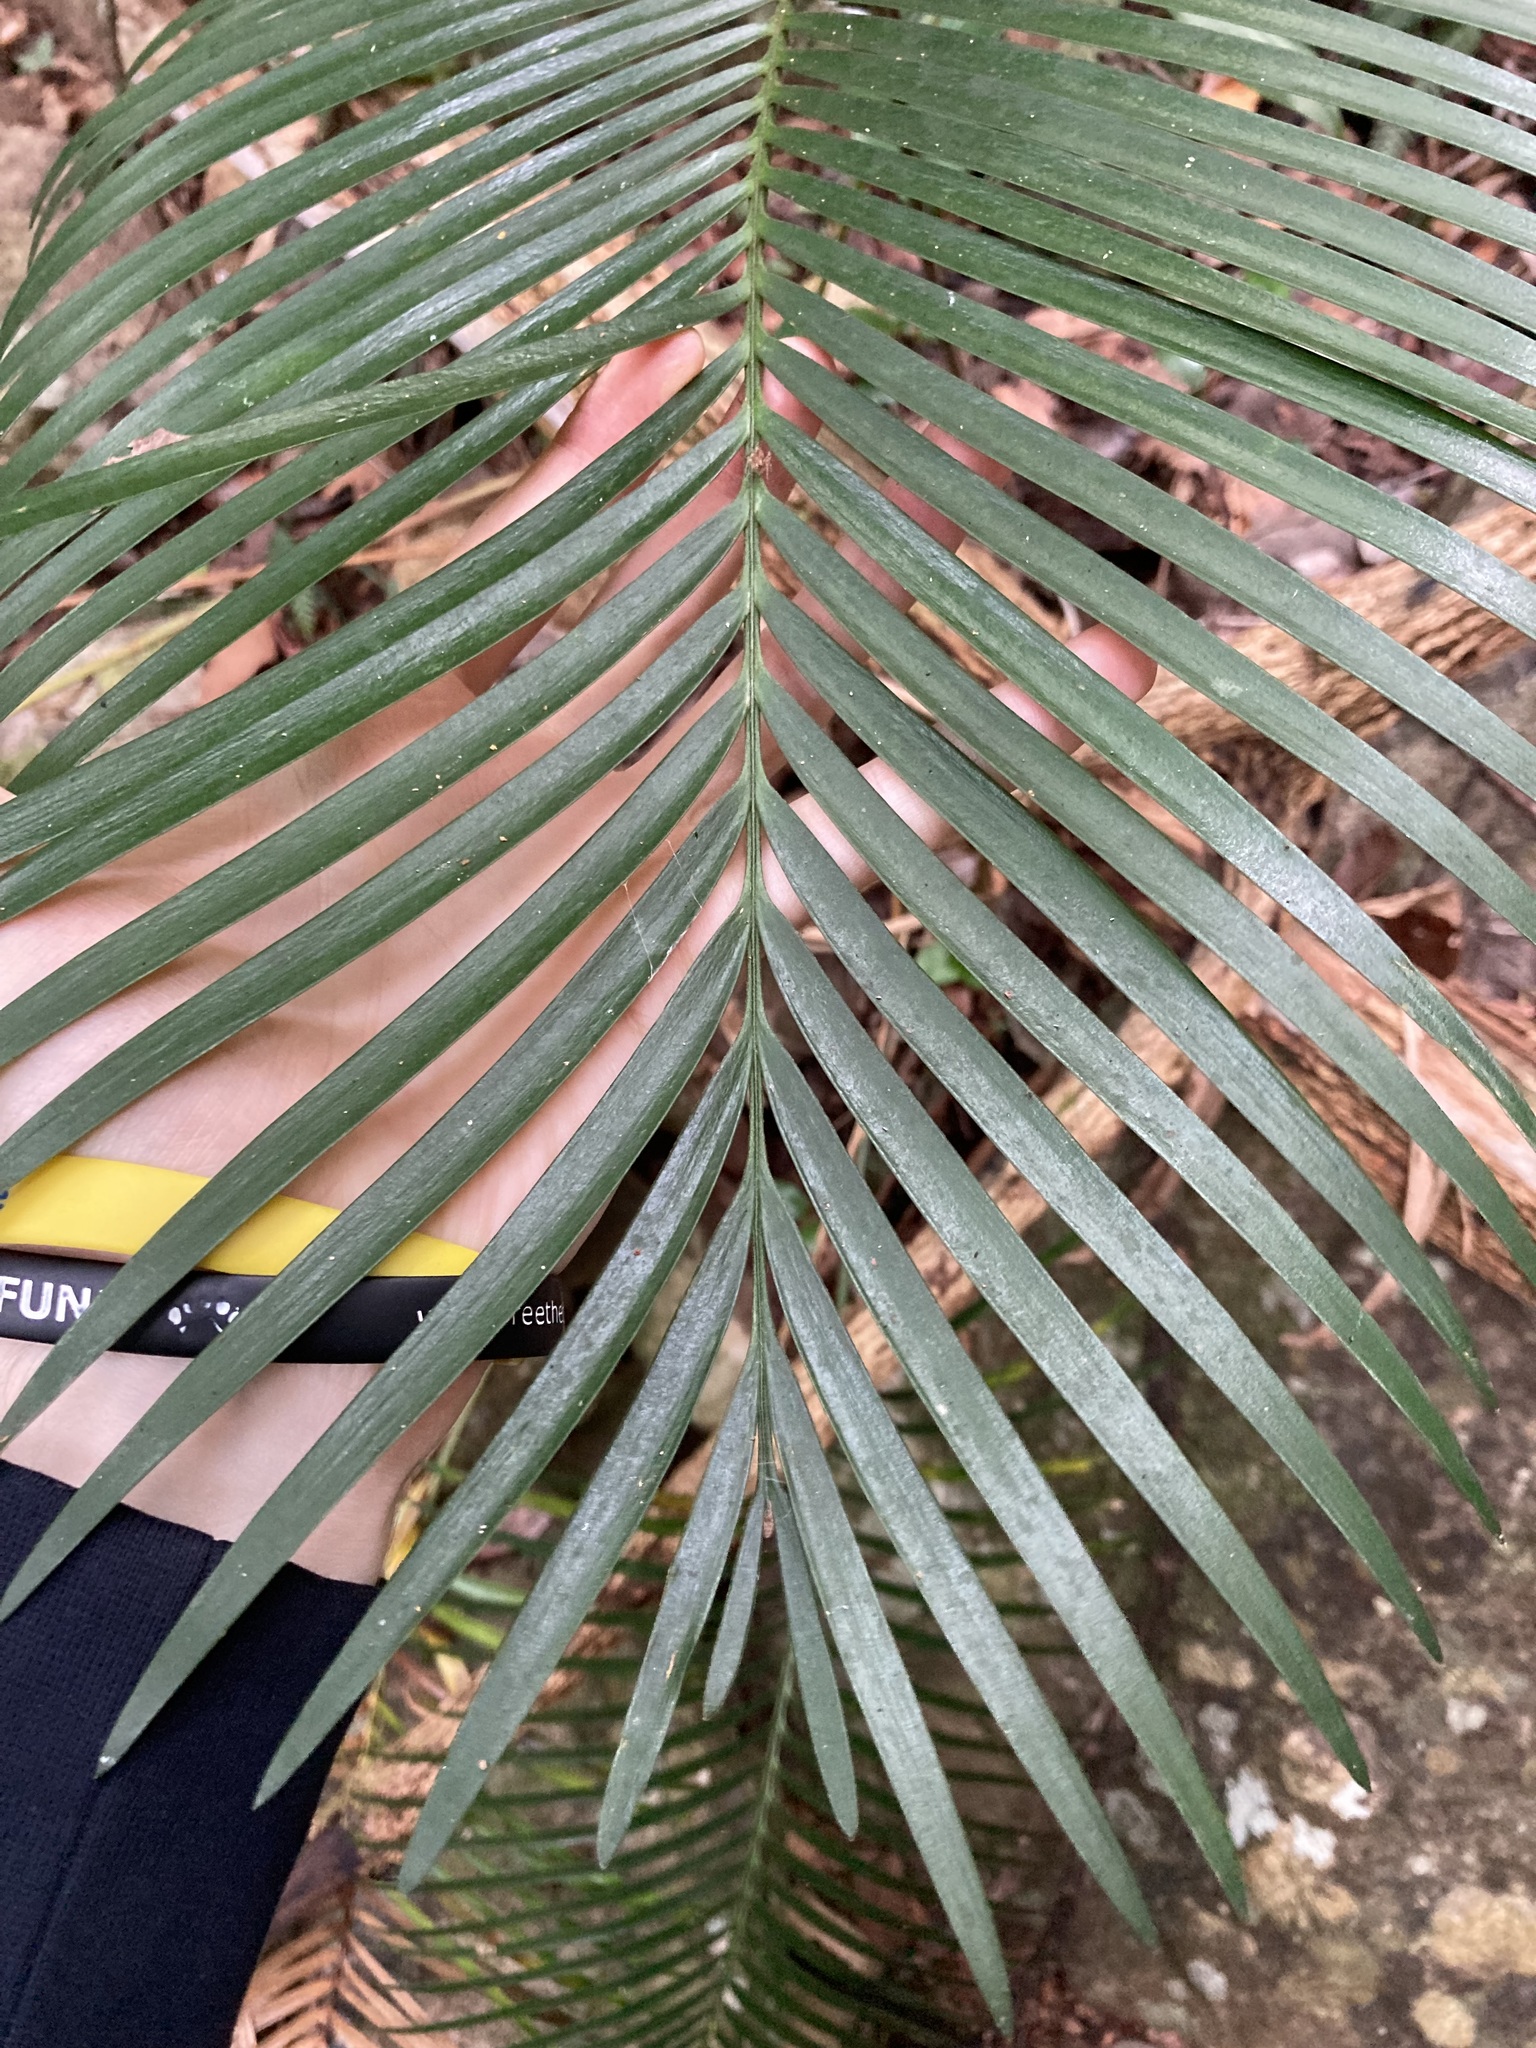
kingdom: Plantae
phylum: Tracheophyta
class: Cycadopsida
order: Cycadales
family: Zamiaceae
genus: Lepidozamia
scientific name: Lepidozamia peroffskyana
